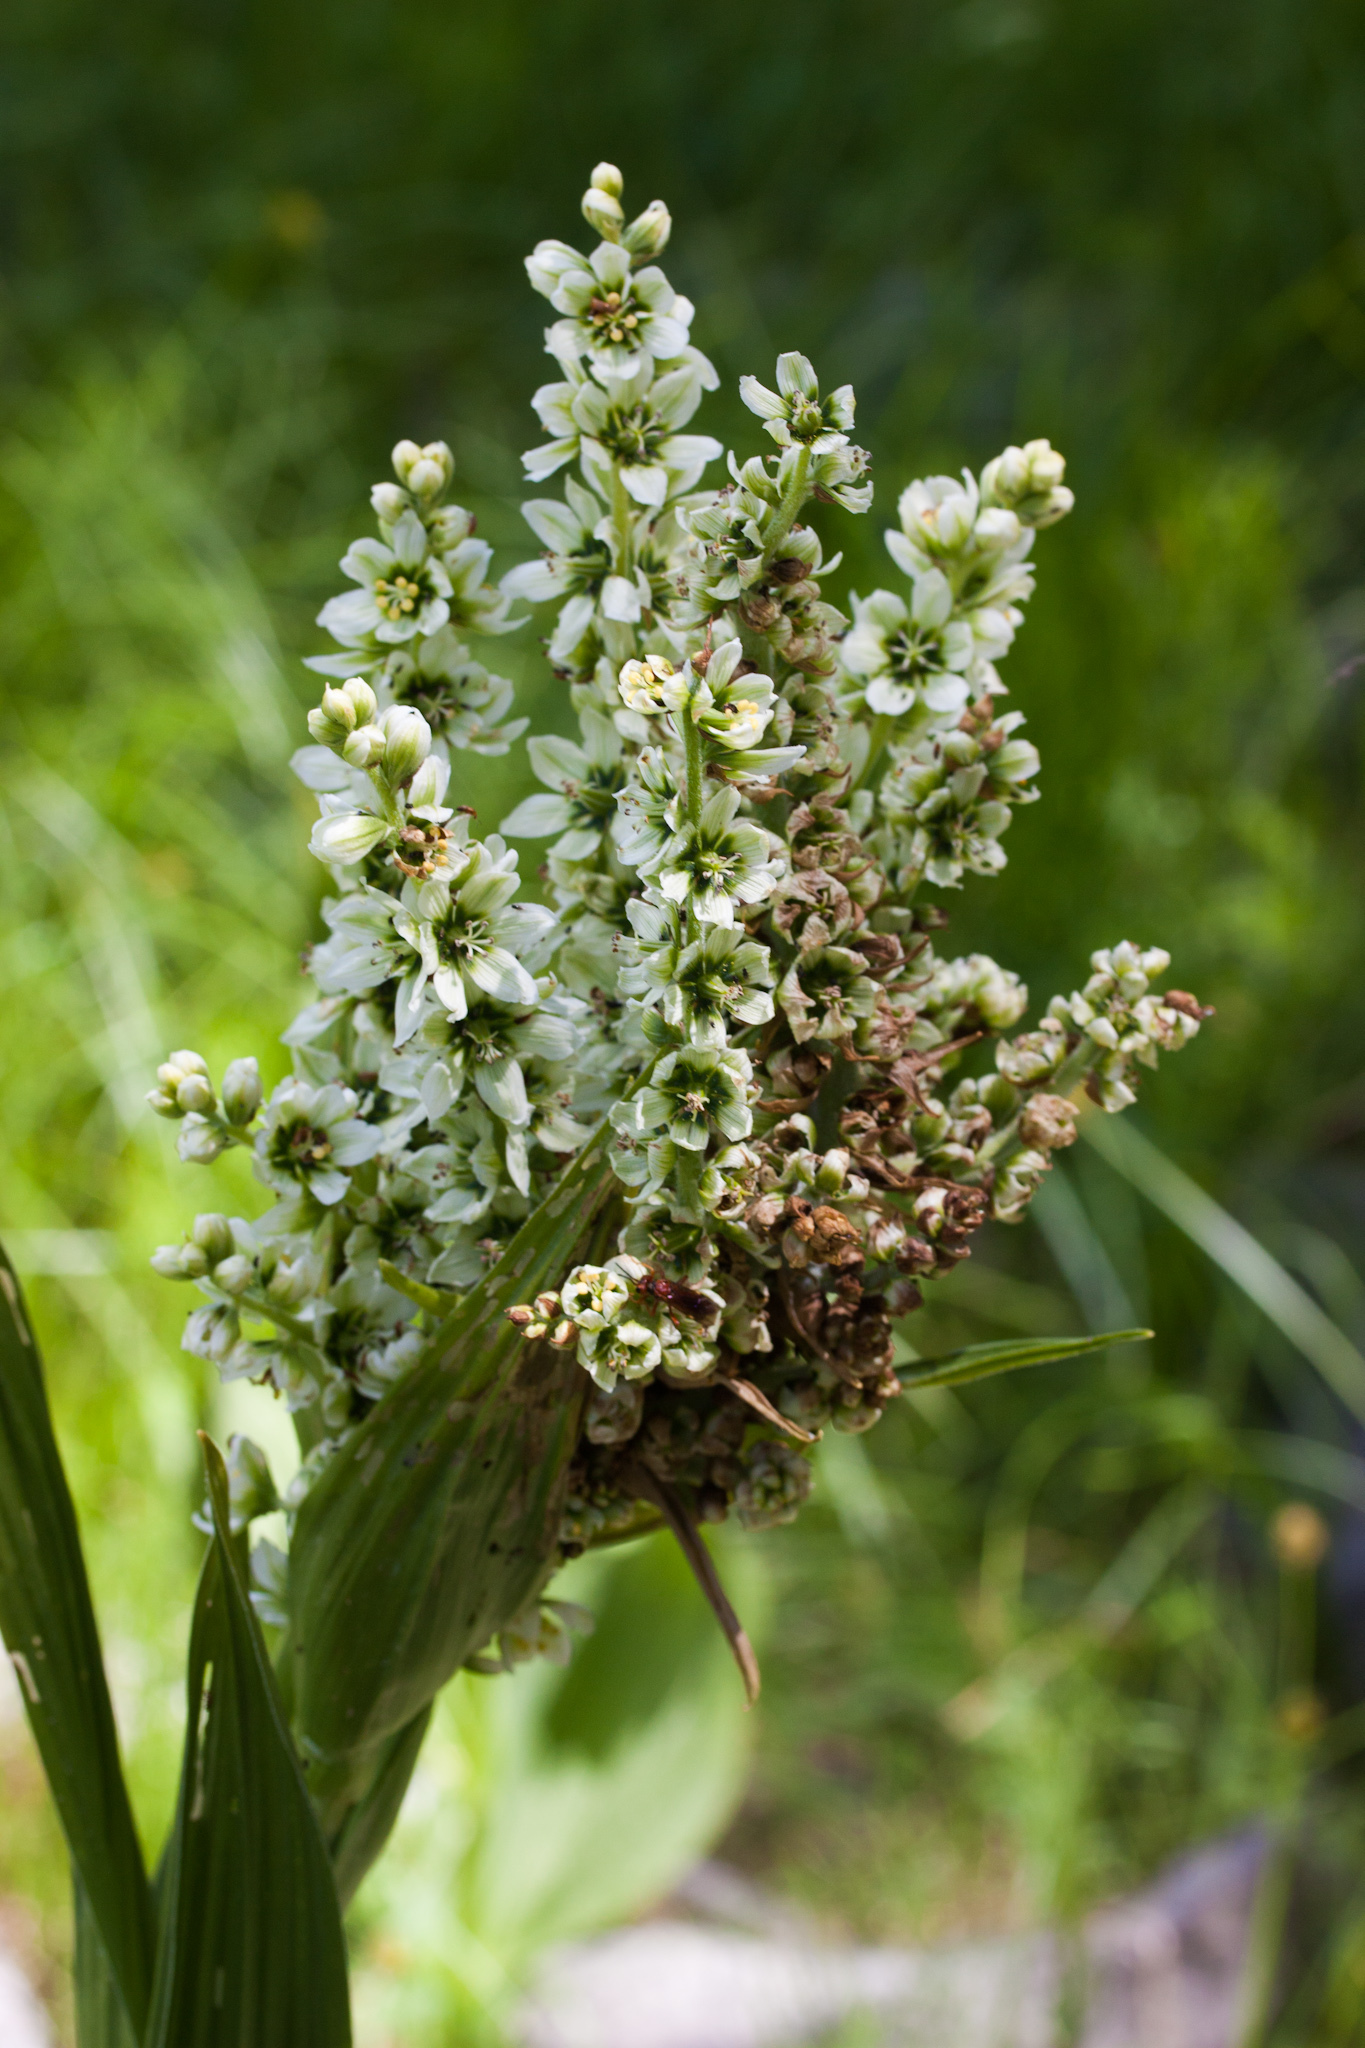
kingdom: Plantae
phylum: Tracheophyta
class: Liliopsida
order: Liliales
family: Melanthiaceae
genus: Veratrum
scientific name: Veratrum californicum
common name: California veratrum
